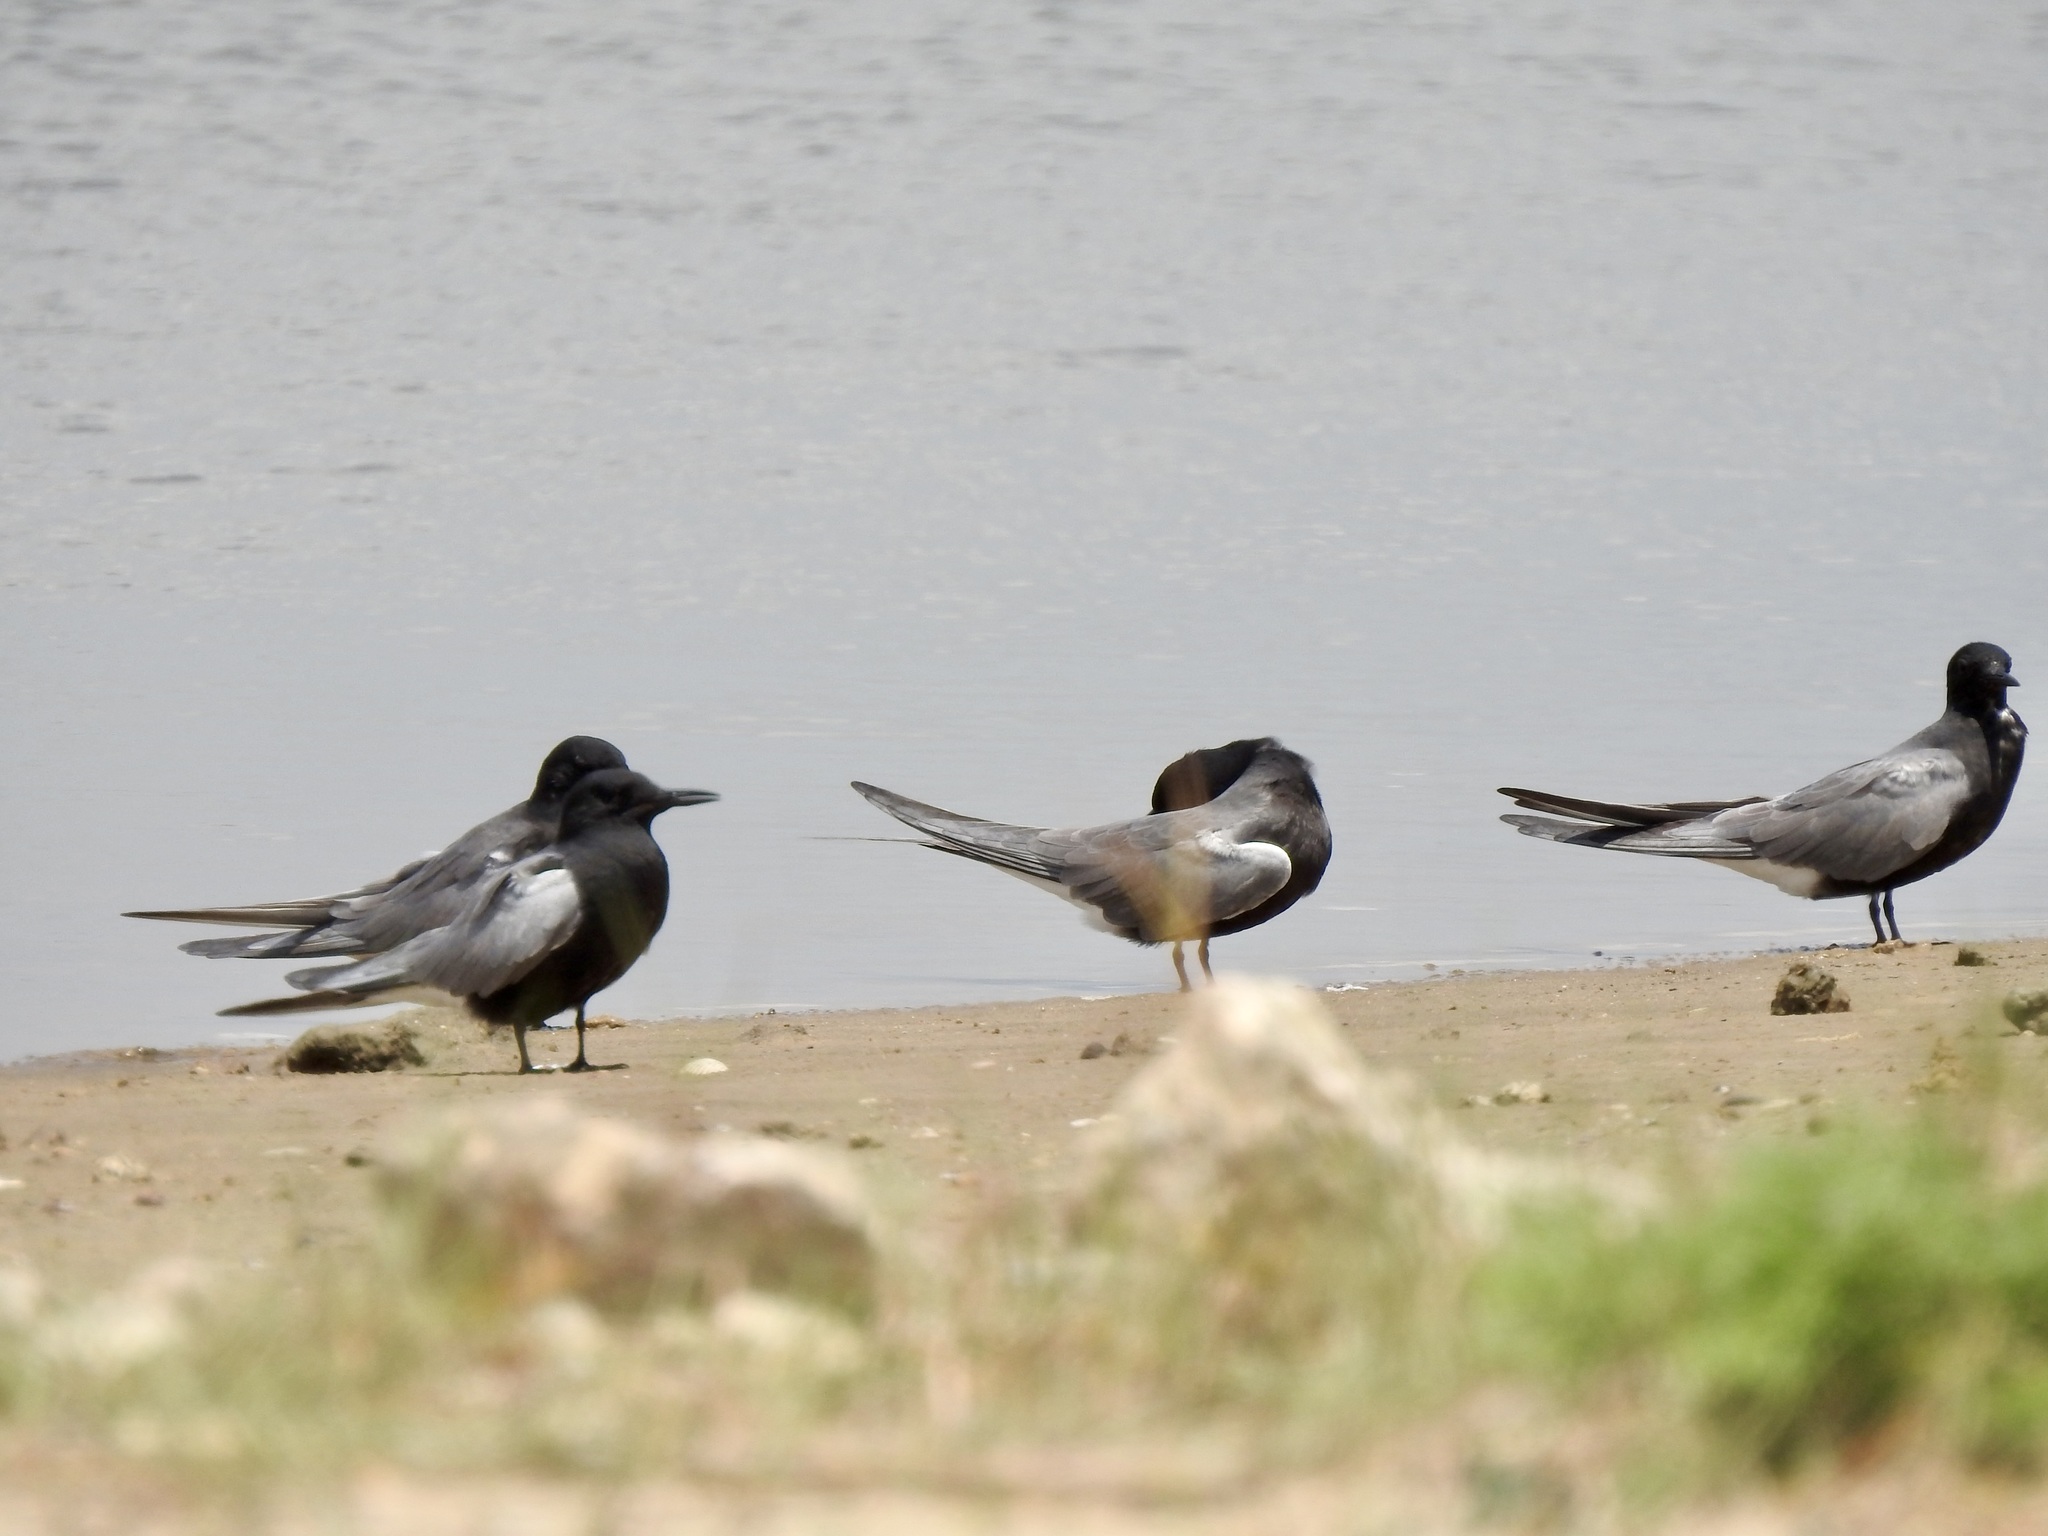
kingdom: Animalia
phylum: Chordata
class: Aves
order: Charadriiformes
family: Laridae
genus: Chlidonias
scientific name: Chlidonias niger
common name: Black tern
